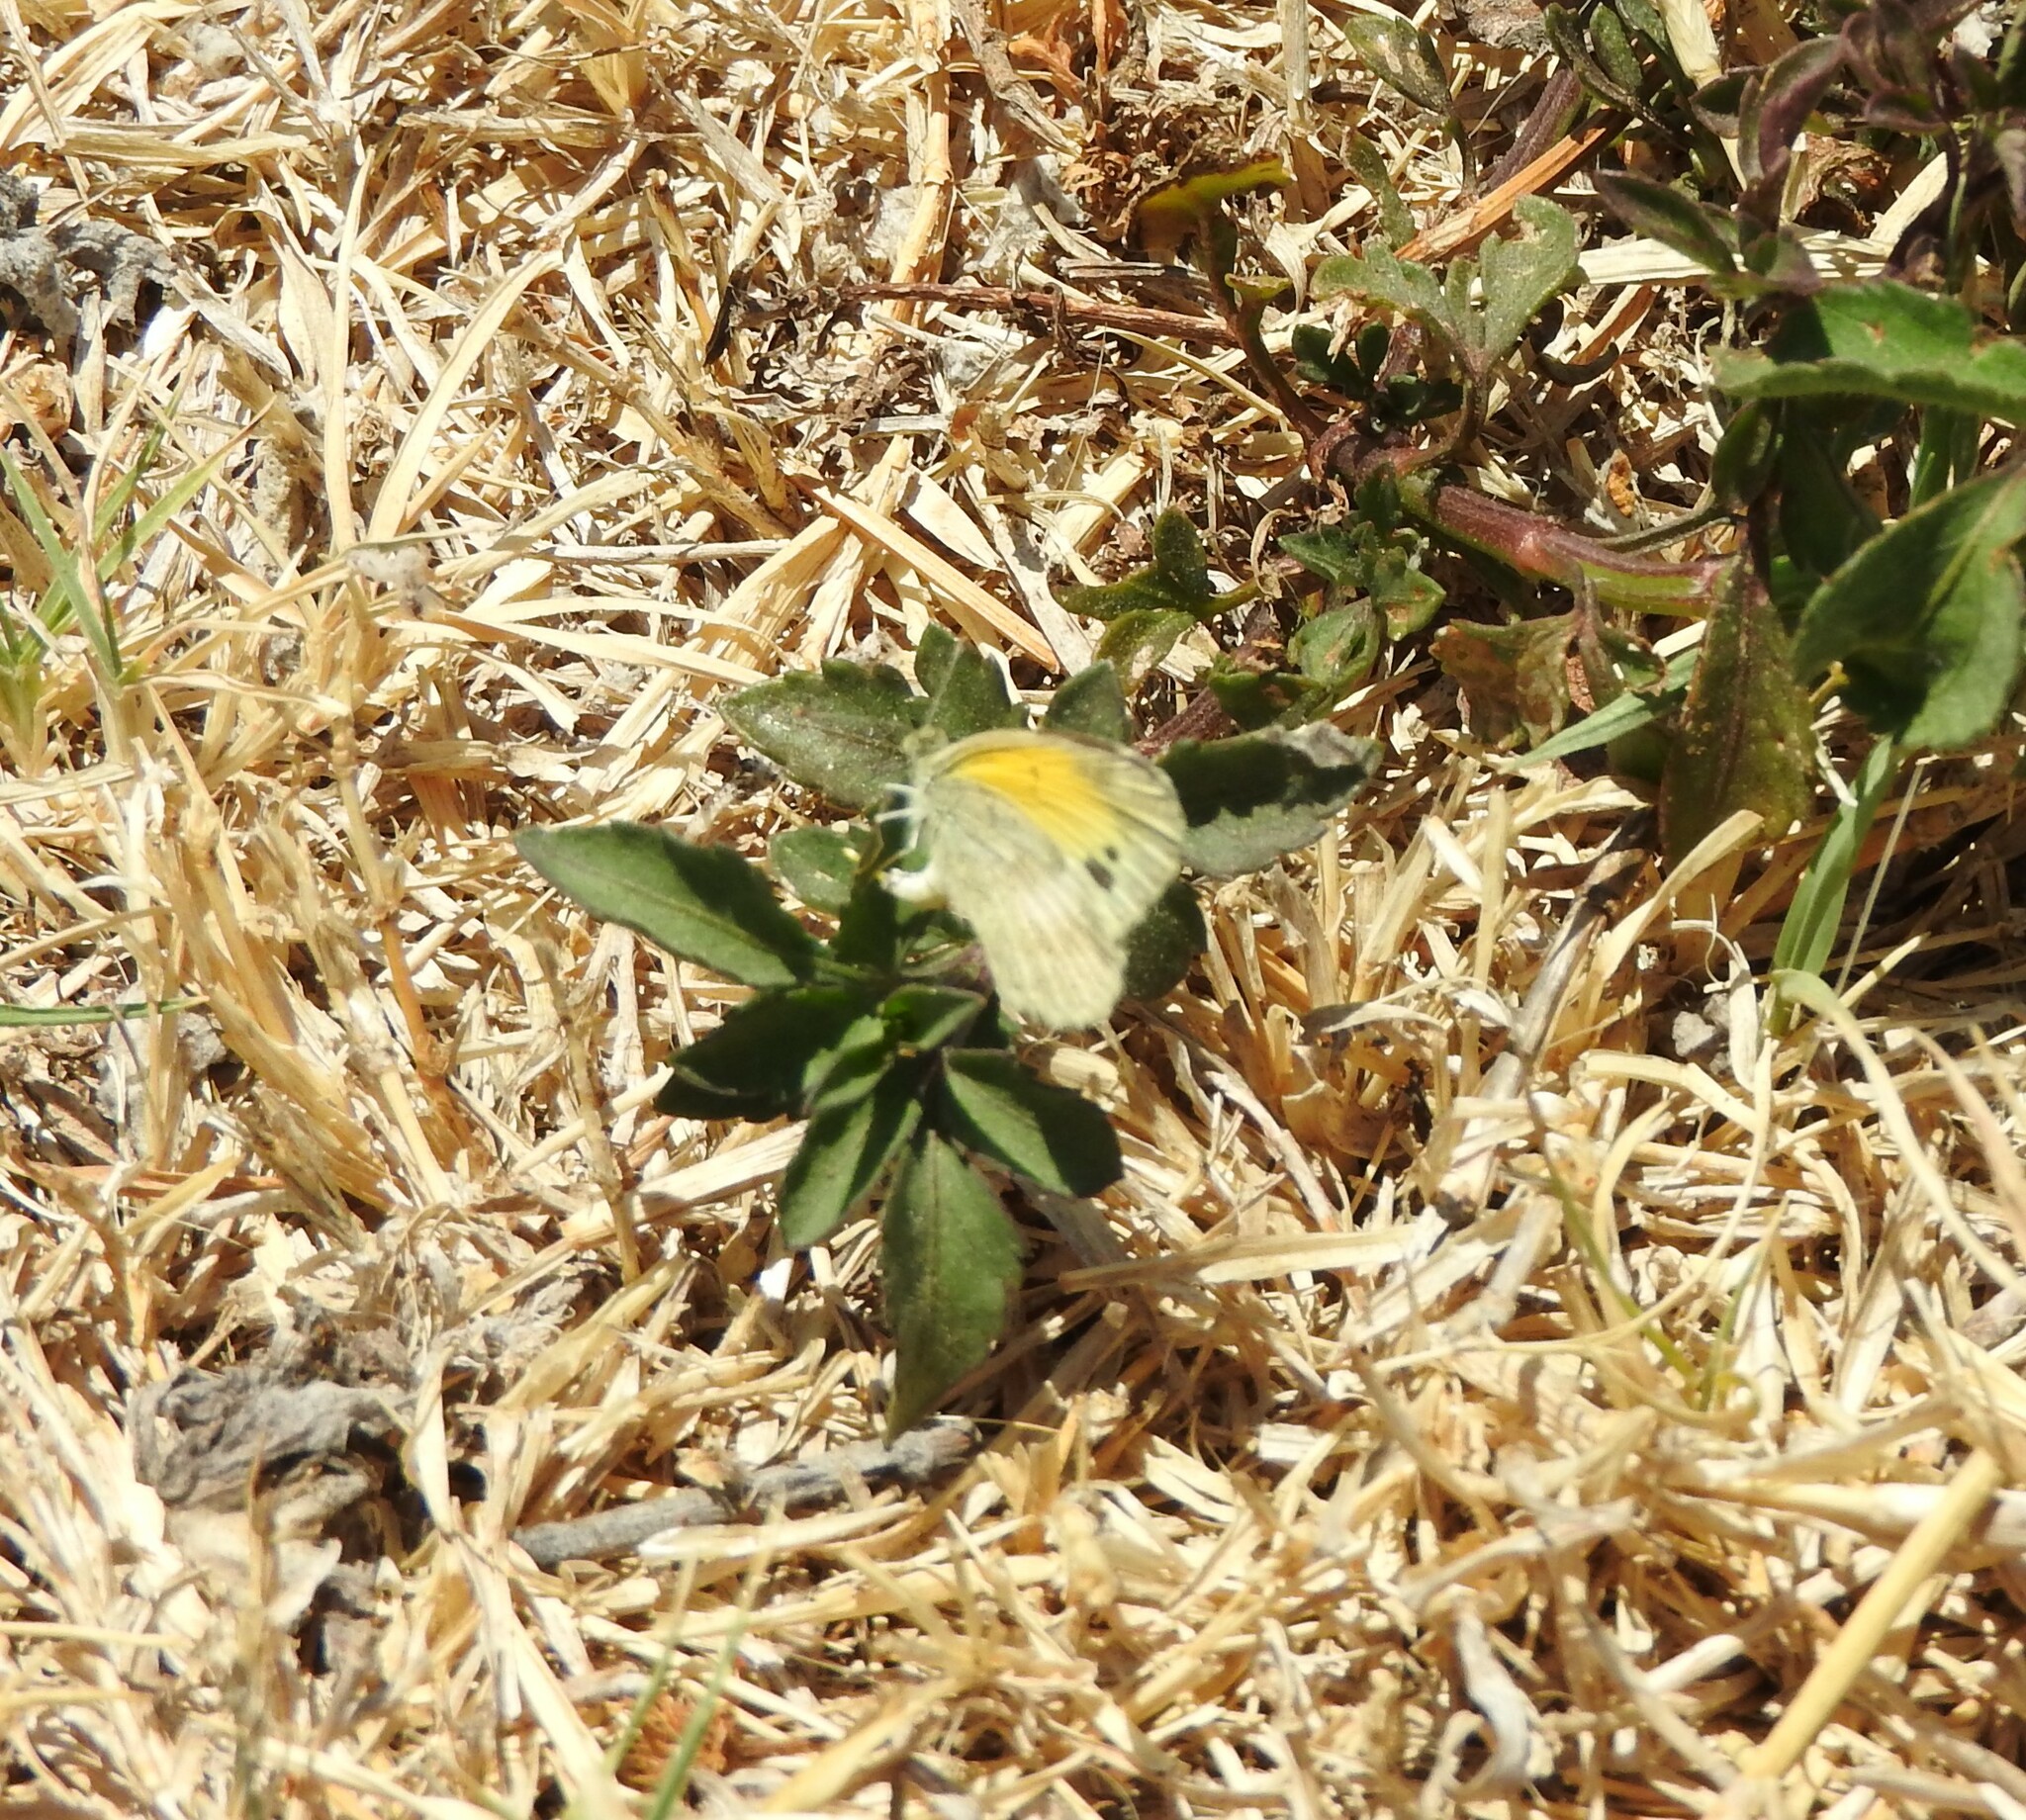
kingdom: Animalia
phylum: Arthropoda
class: Insecta
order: Lepidoptera
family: Pieridae
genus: Nathalis
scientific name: Nathalis iole
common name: Dainty sulphur
